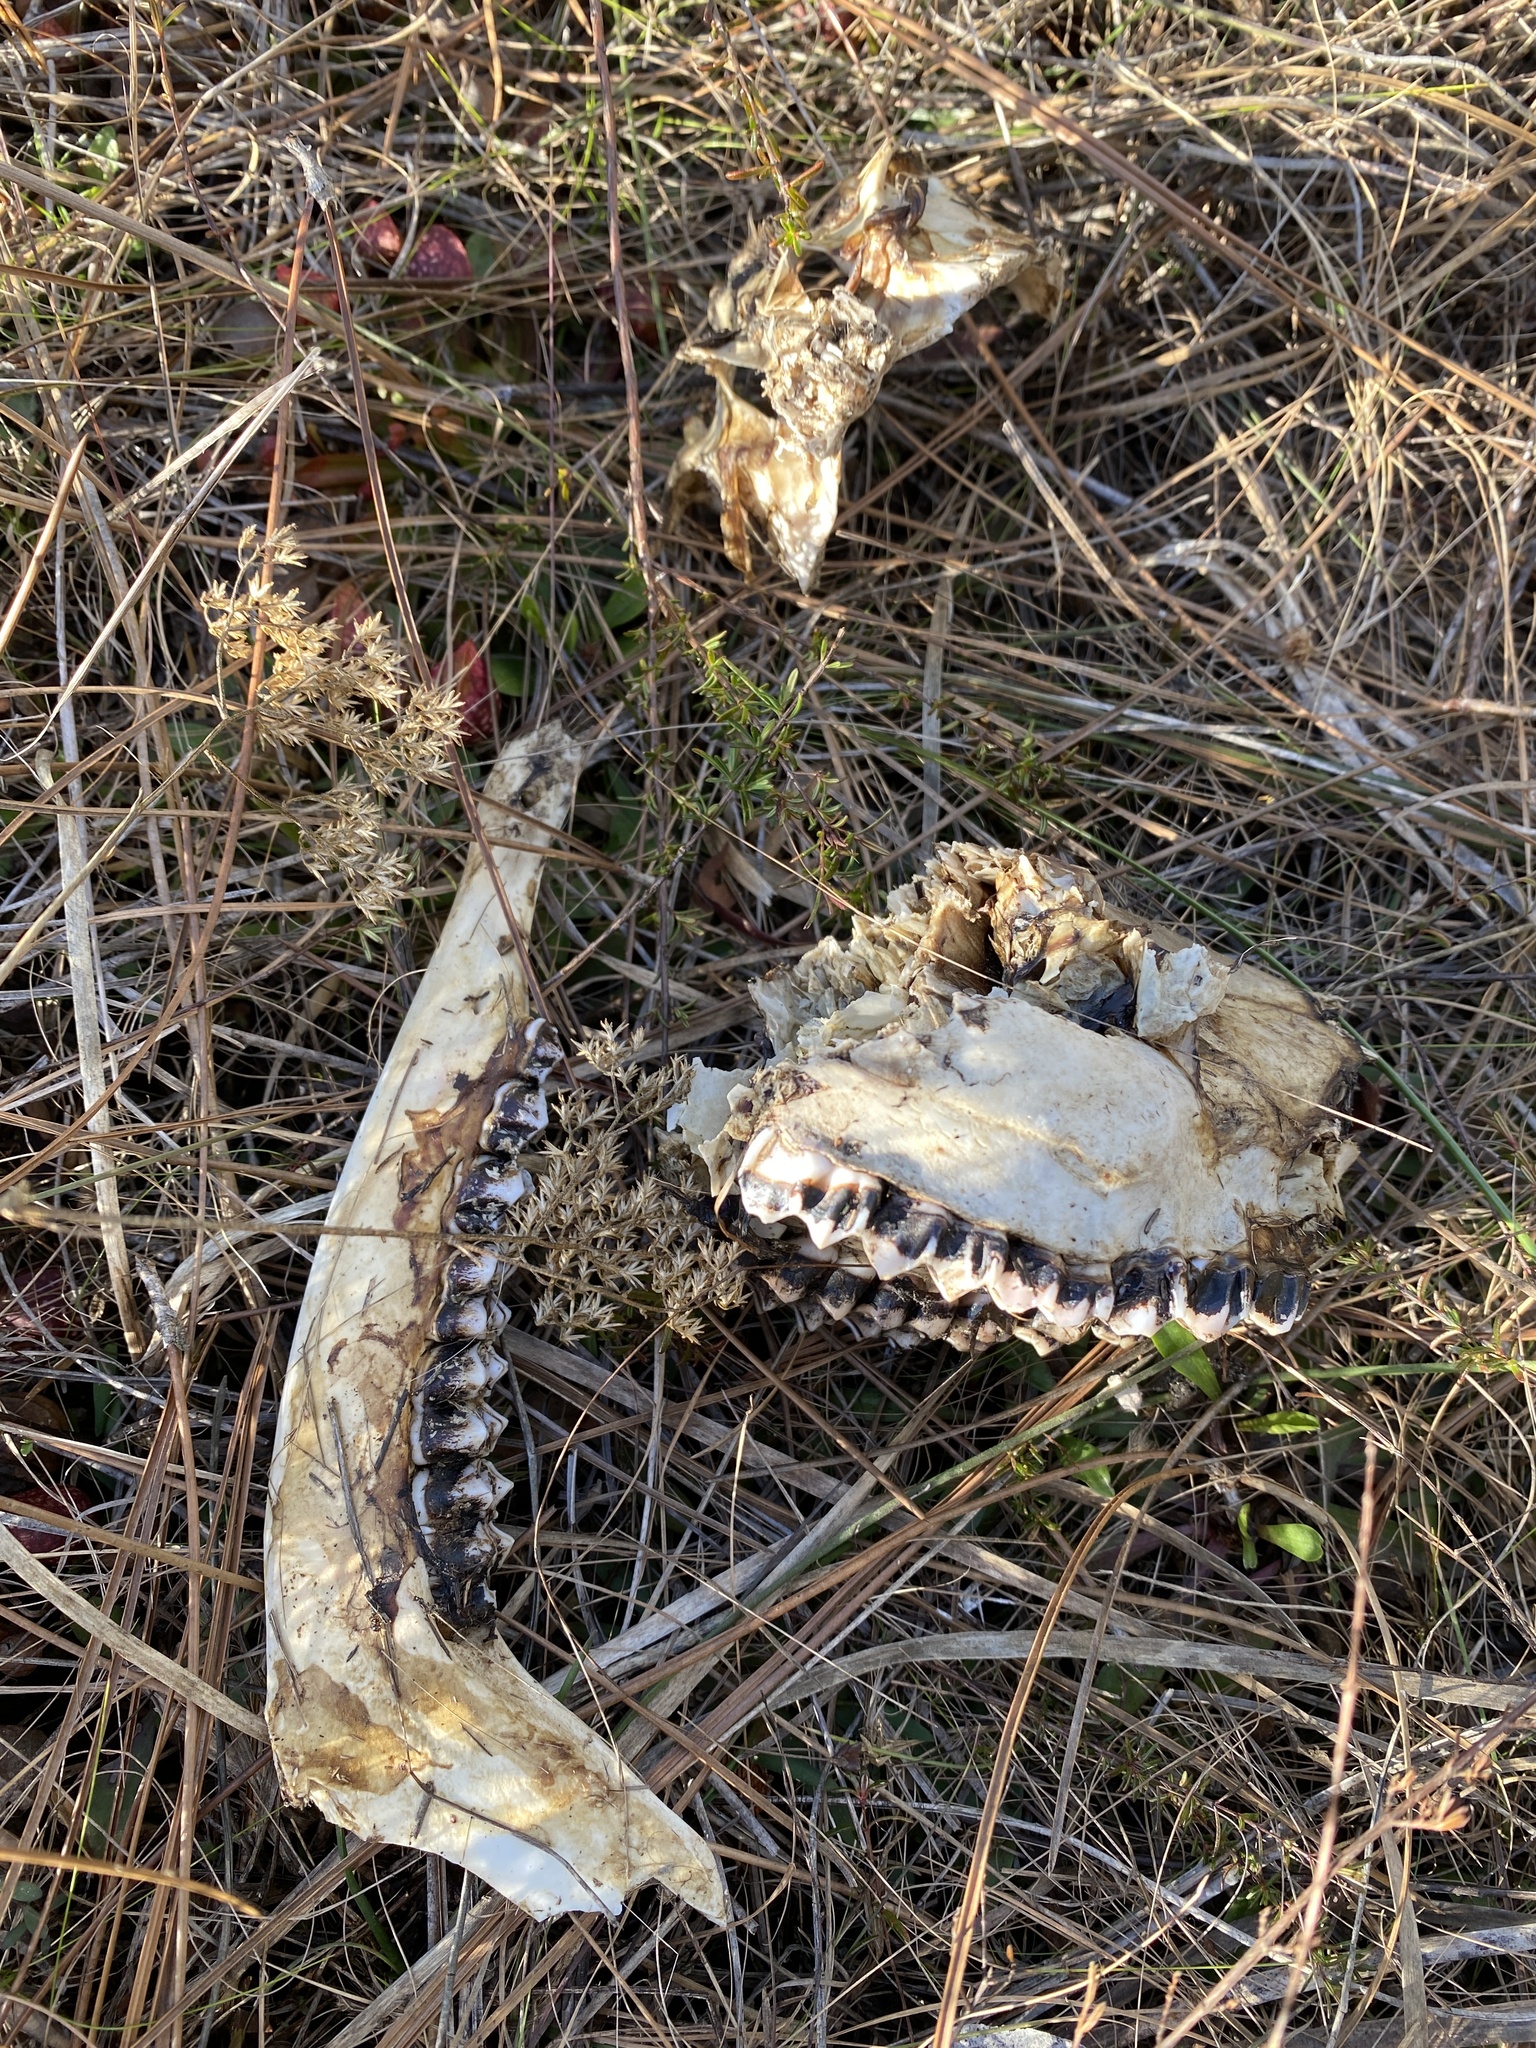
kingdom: Animalia
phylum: Chordata
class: Mammalia
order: Artiodactyla
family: Cervidae
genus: Odocoileus
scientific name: Odocoileus virginianus
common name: White-tailed deer
